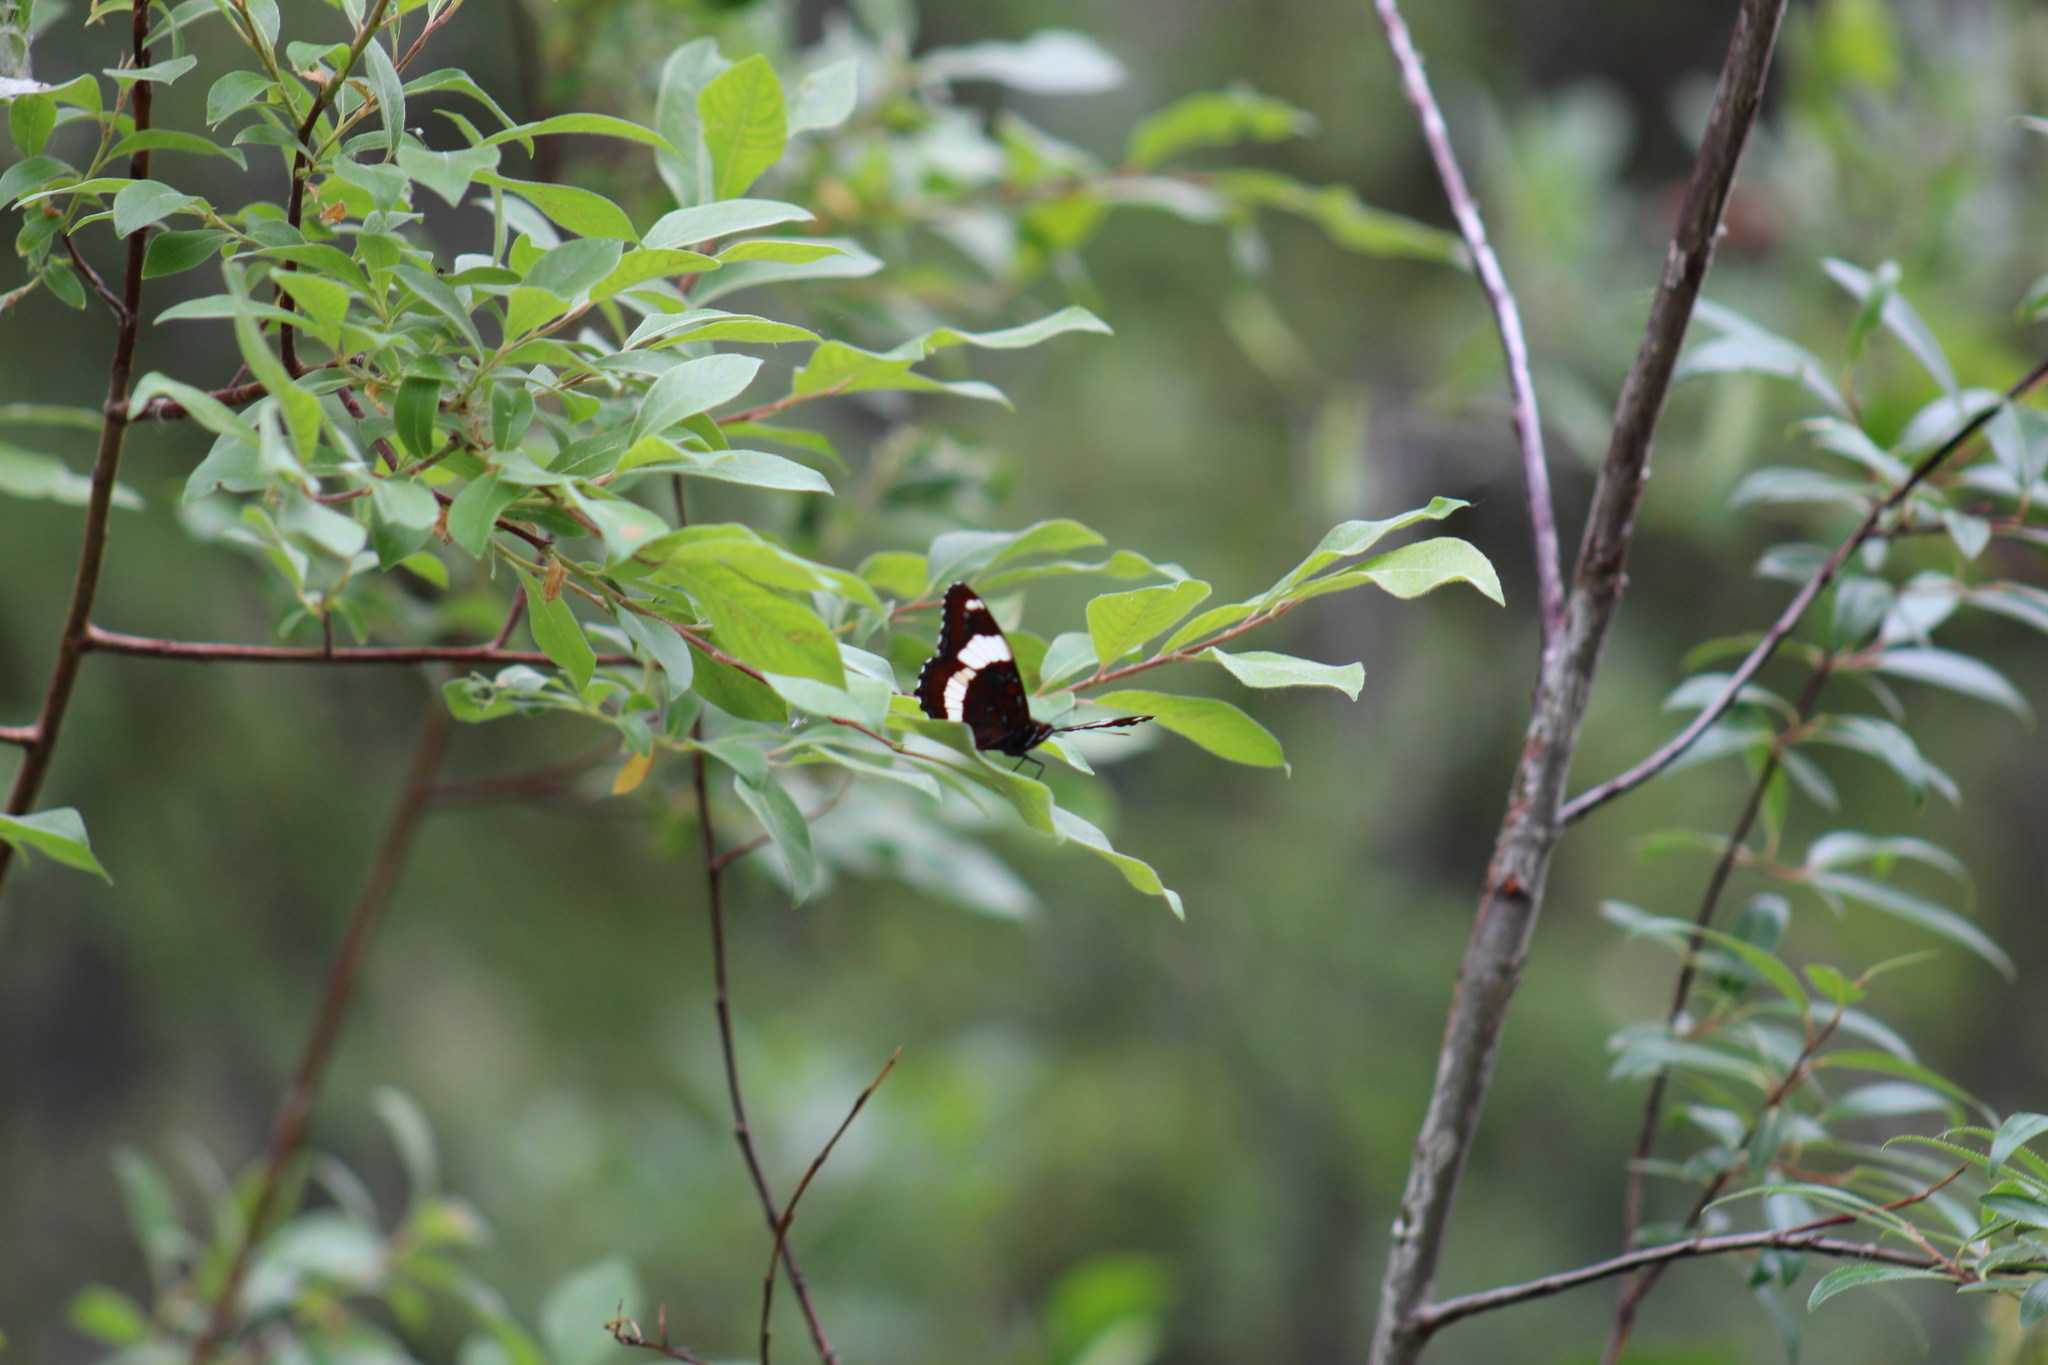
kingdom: Animalia
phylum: Arthropoda
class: Insecta
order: Lepidoptera
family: Nymphalidae
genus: Limenitis
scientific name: Limenitis arthemis
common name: Red-spotted admiral
